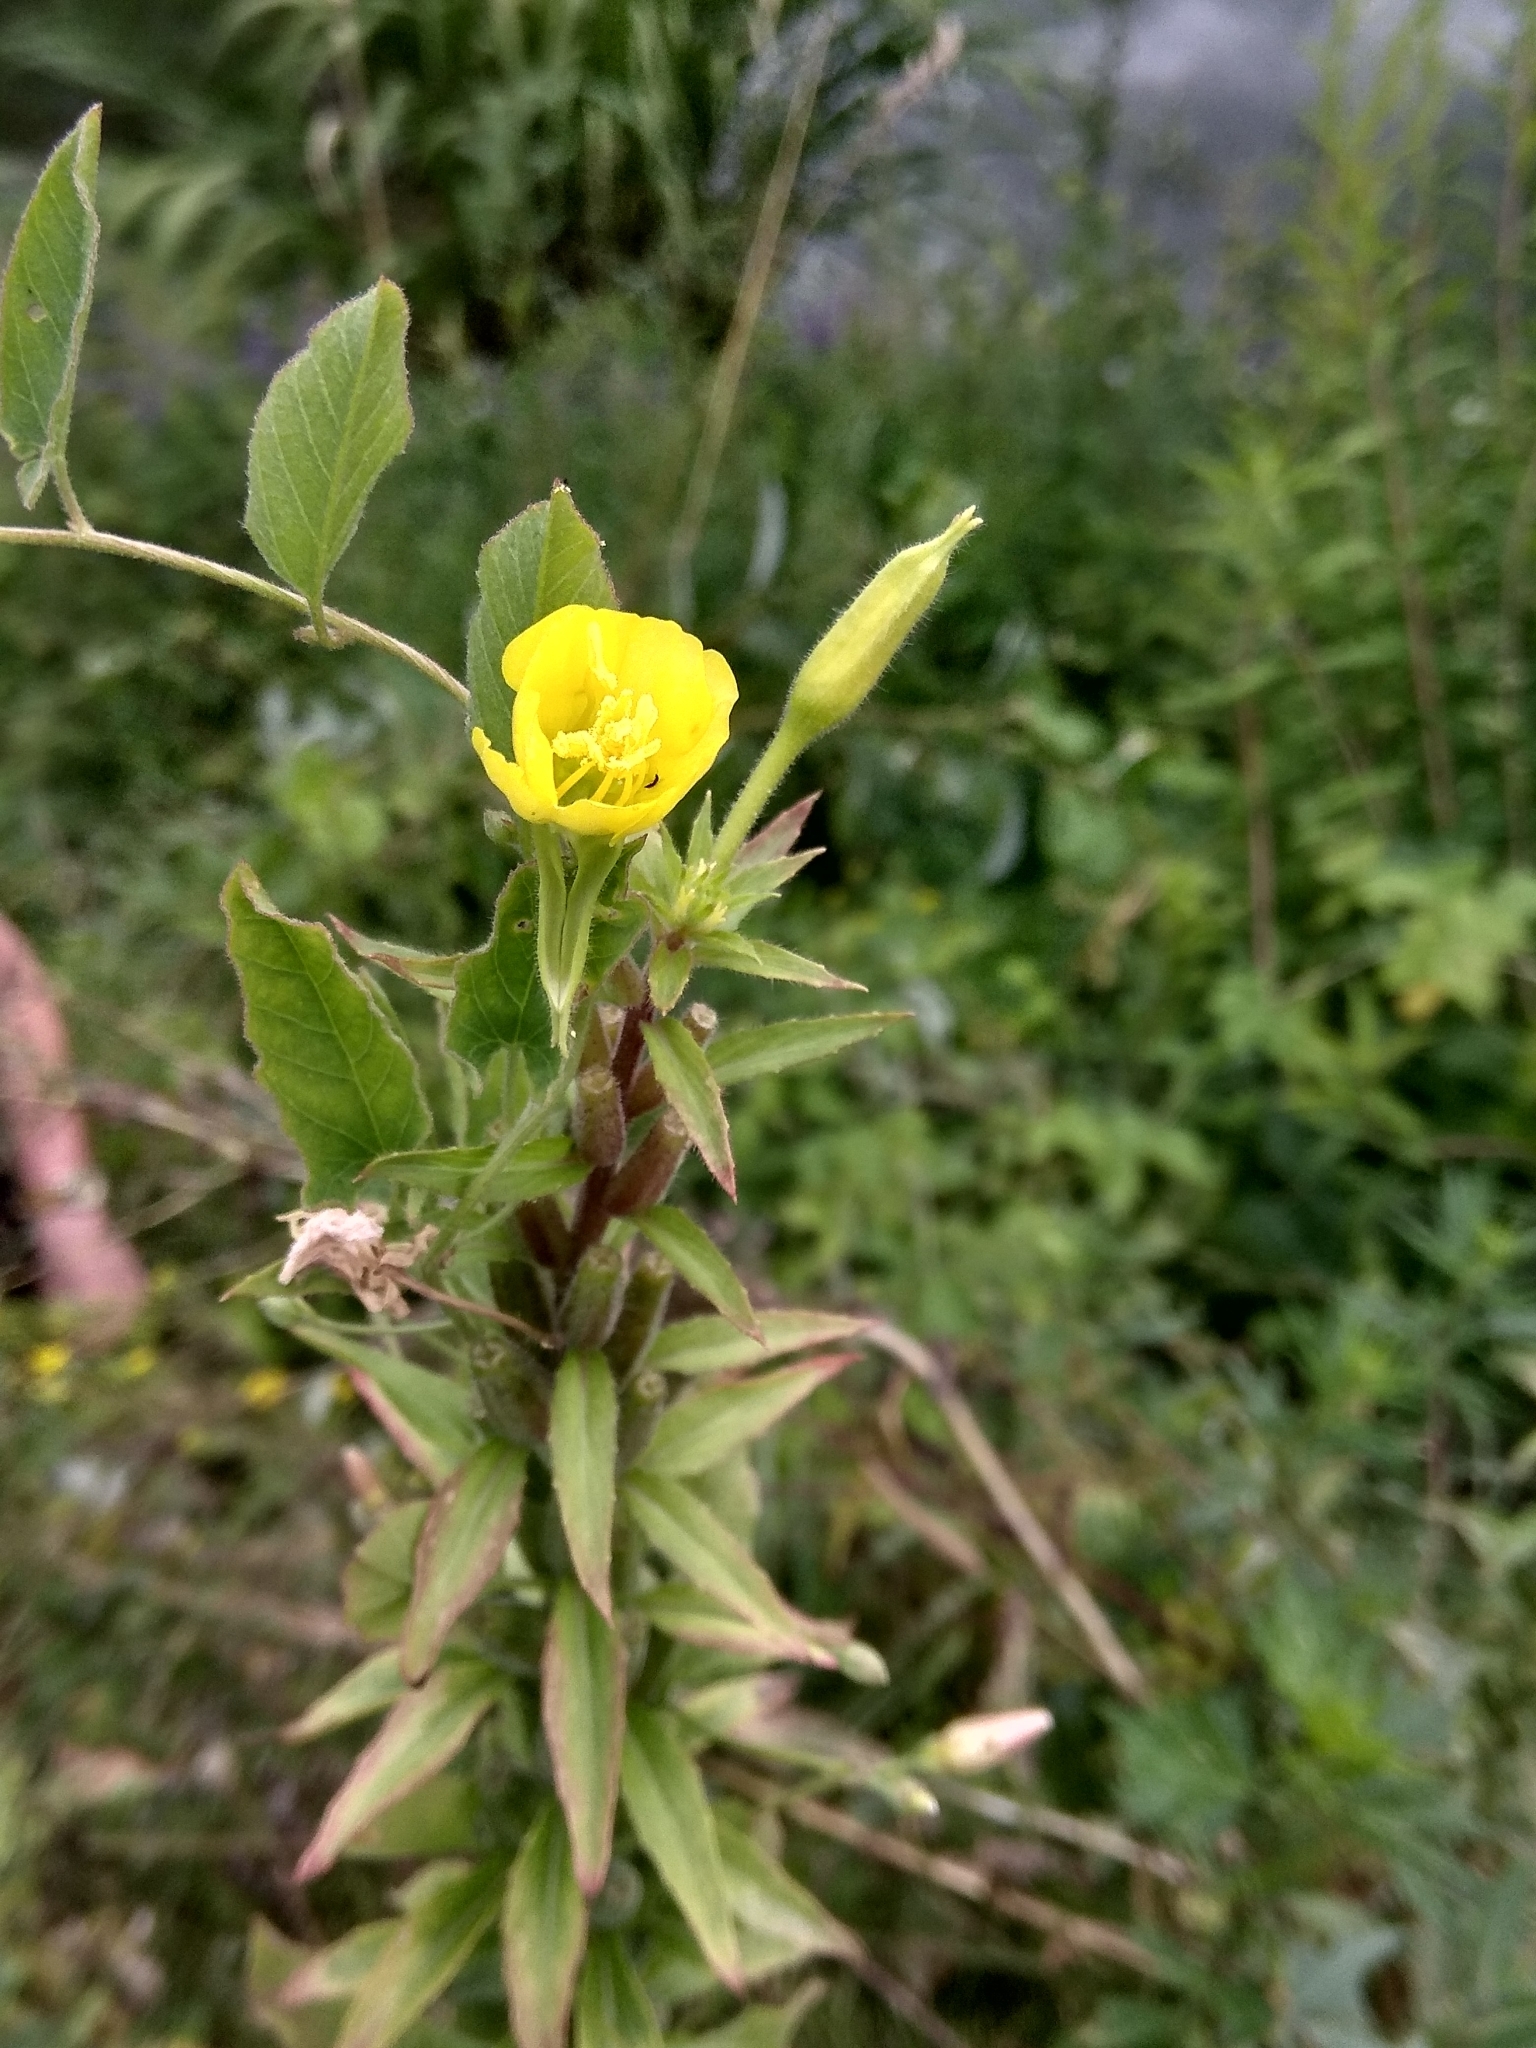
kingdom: Plantae
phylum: Tracheophyta
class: Magnoliopsida
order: Myrtales
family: Onagraceae
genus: Oenothera
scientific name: Oenothera rubricaulis
